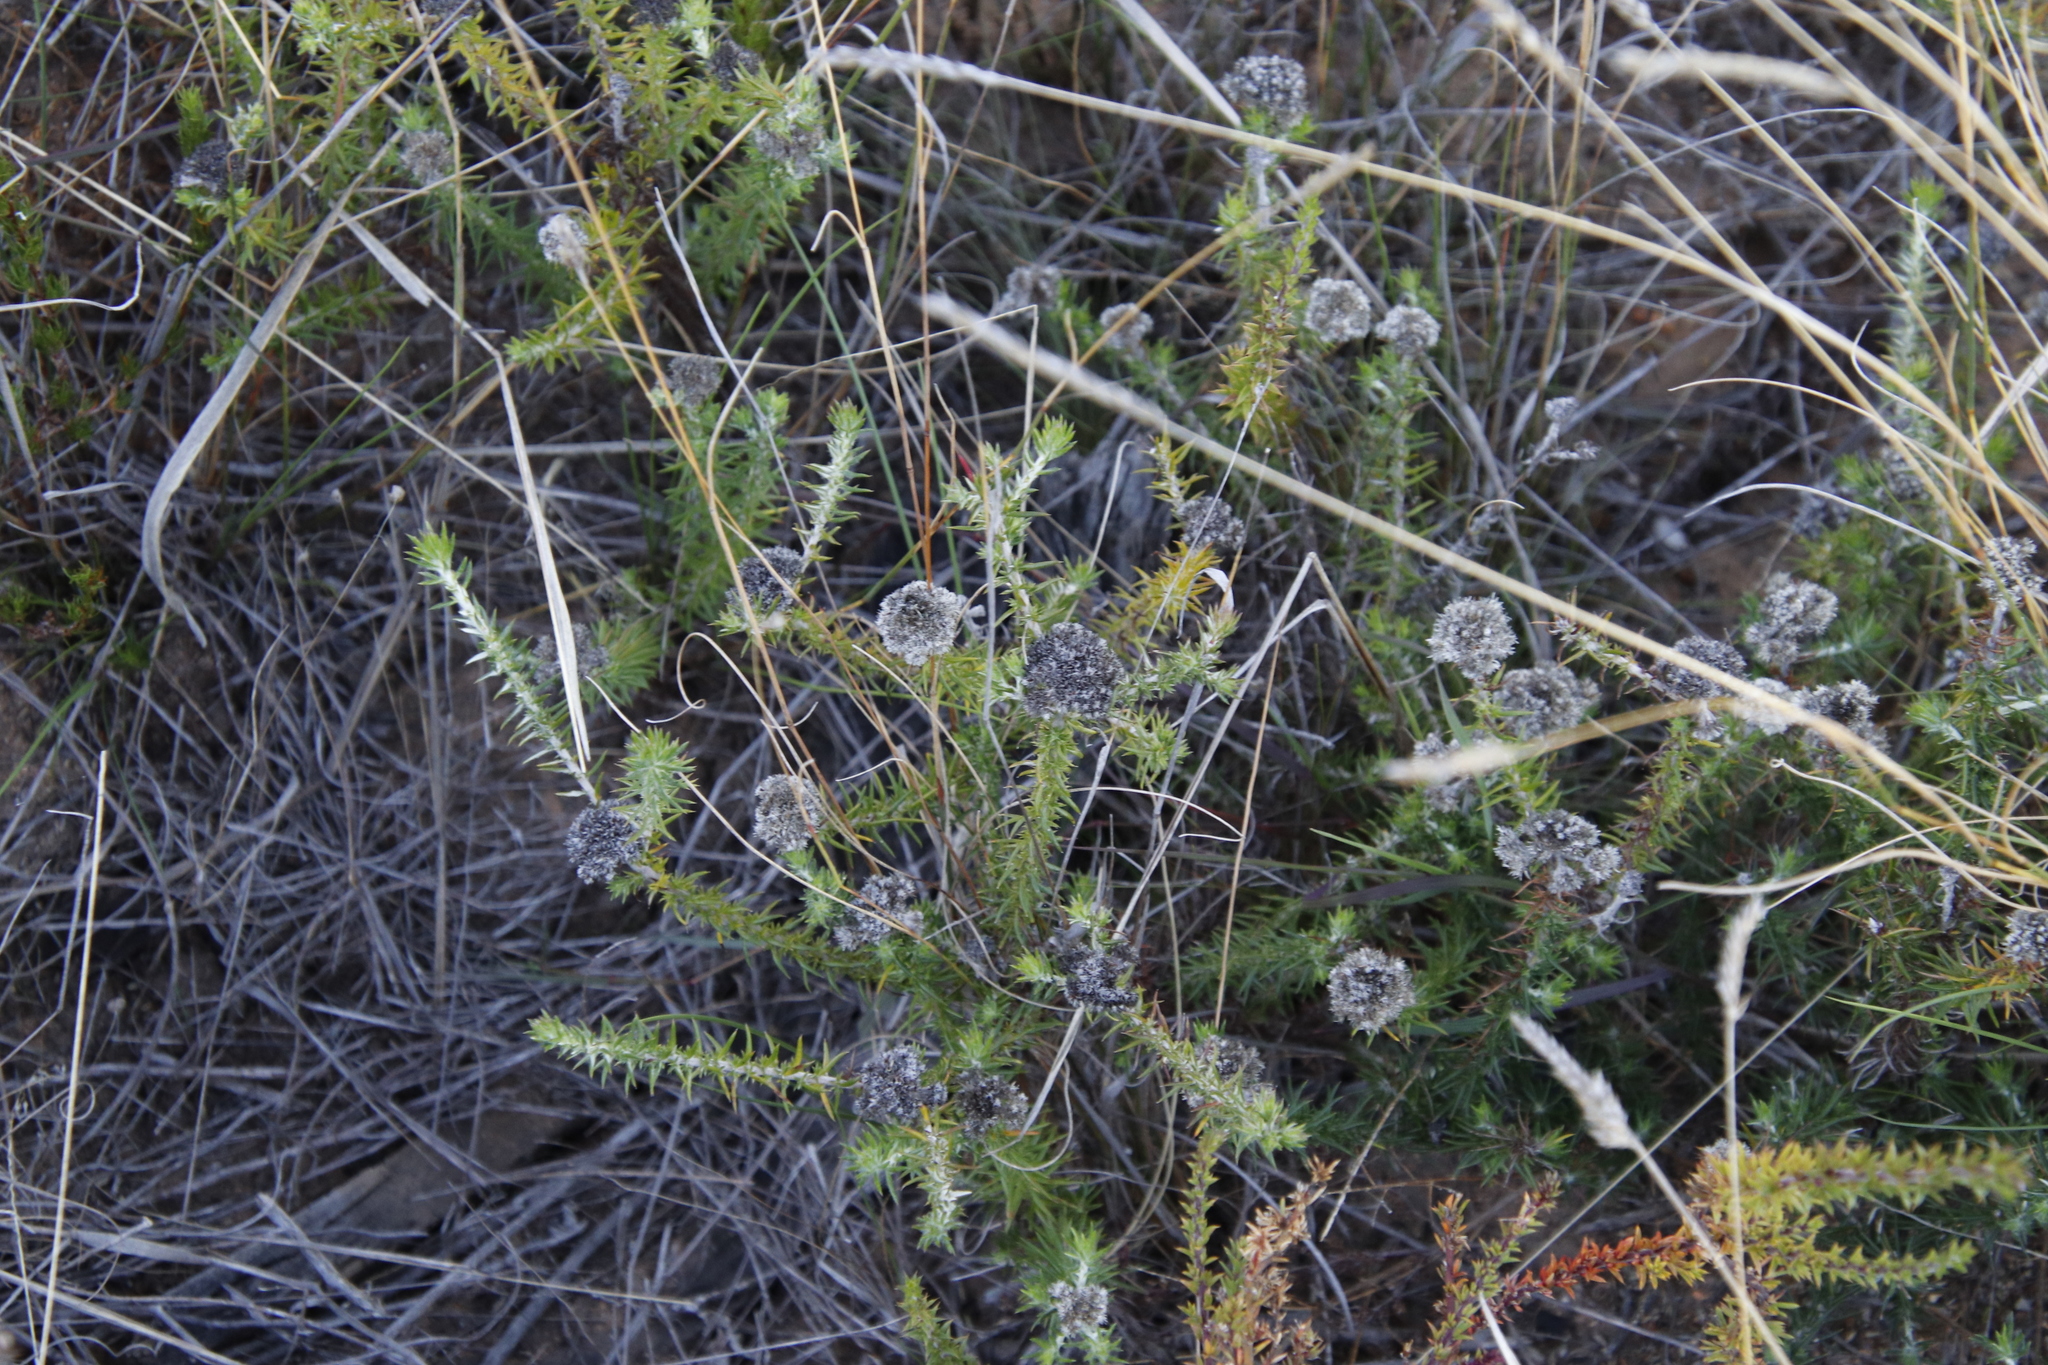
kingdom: Plantae
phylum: Tracheophyta
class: Magnoliopsida
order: Asterales
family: Asteraceae
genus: Metalasia
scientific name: Metalasia pulchella
